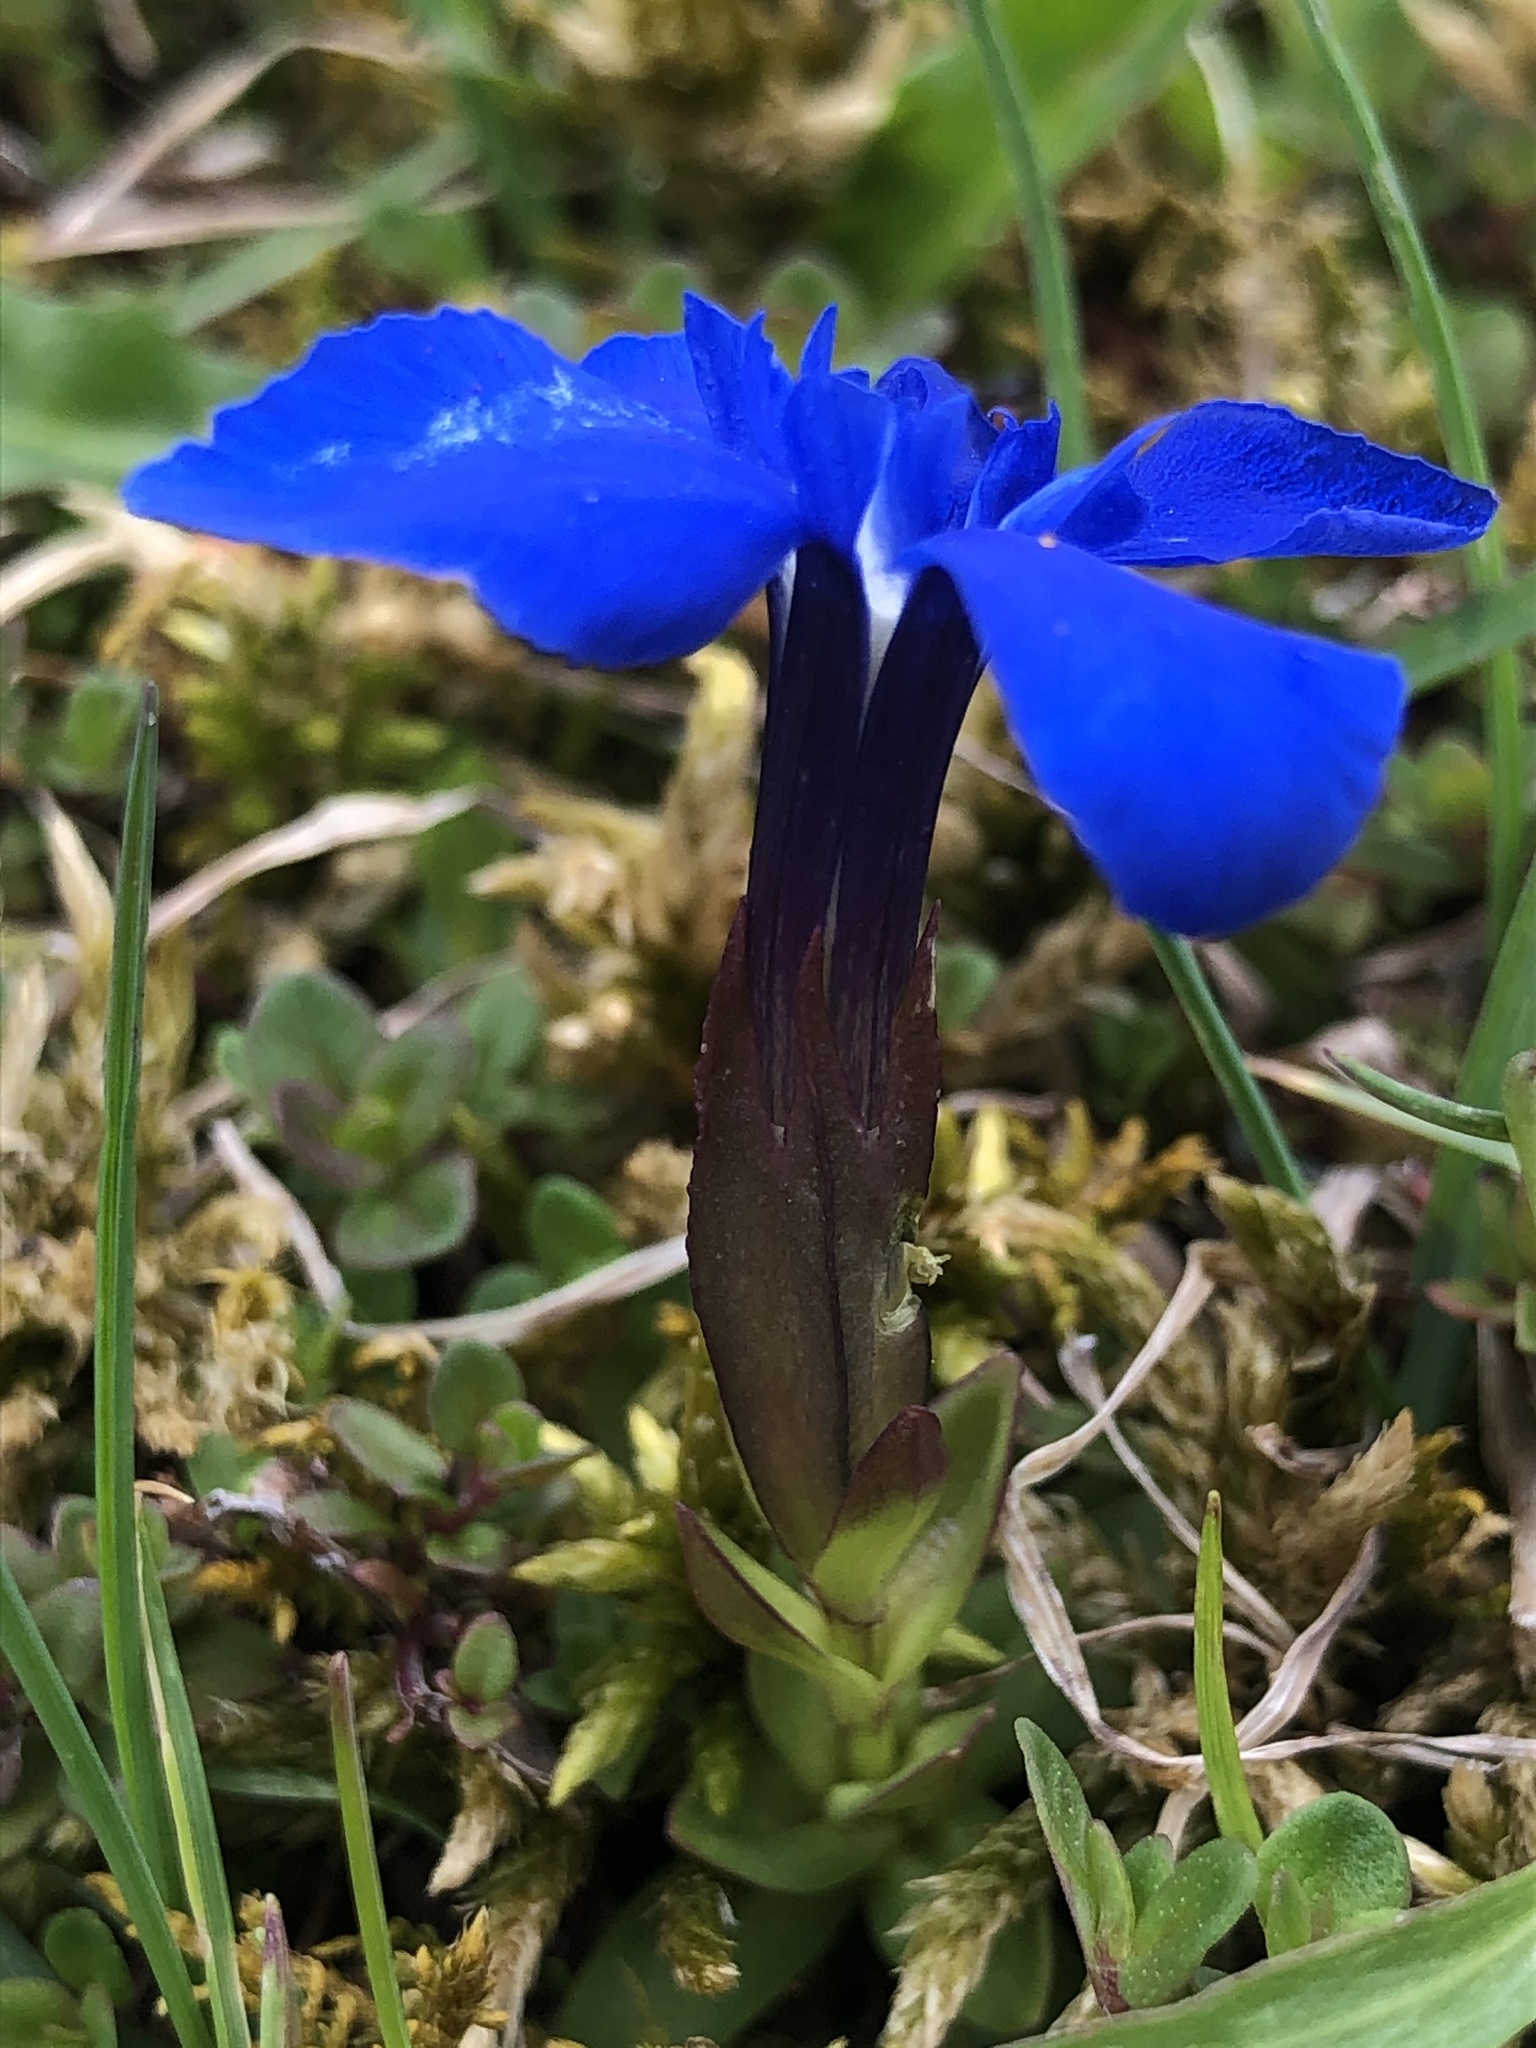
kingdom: Plantae
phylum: Tracheophyta
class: Magnoliopsida
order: Gentianales
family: Gentianaceae
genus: Gentiana
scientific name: Gentiana verna
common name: Spring gentian
